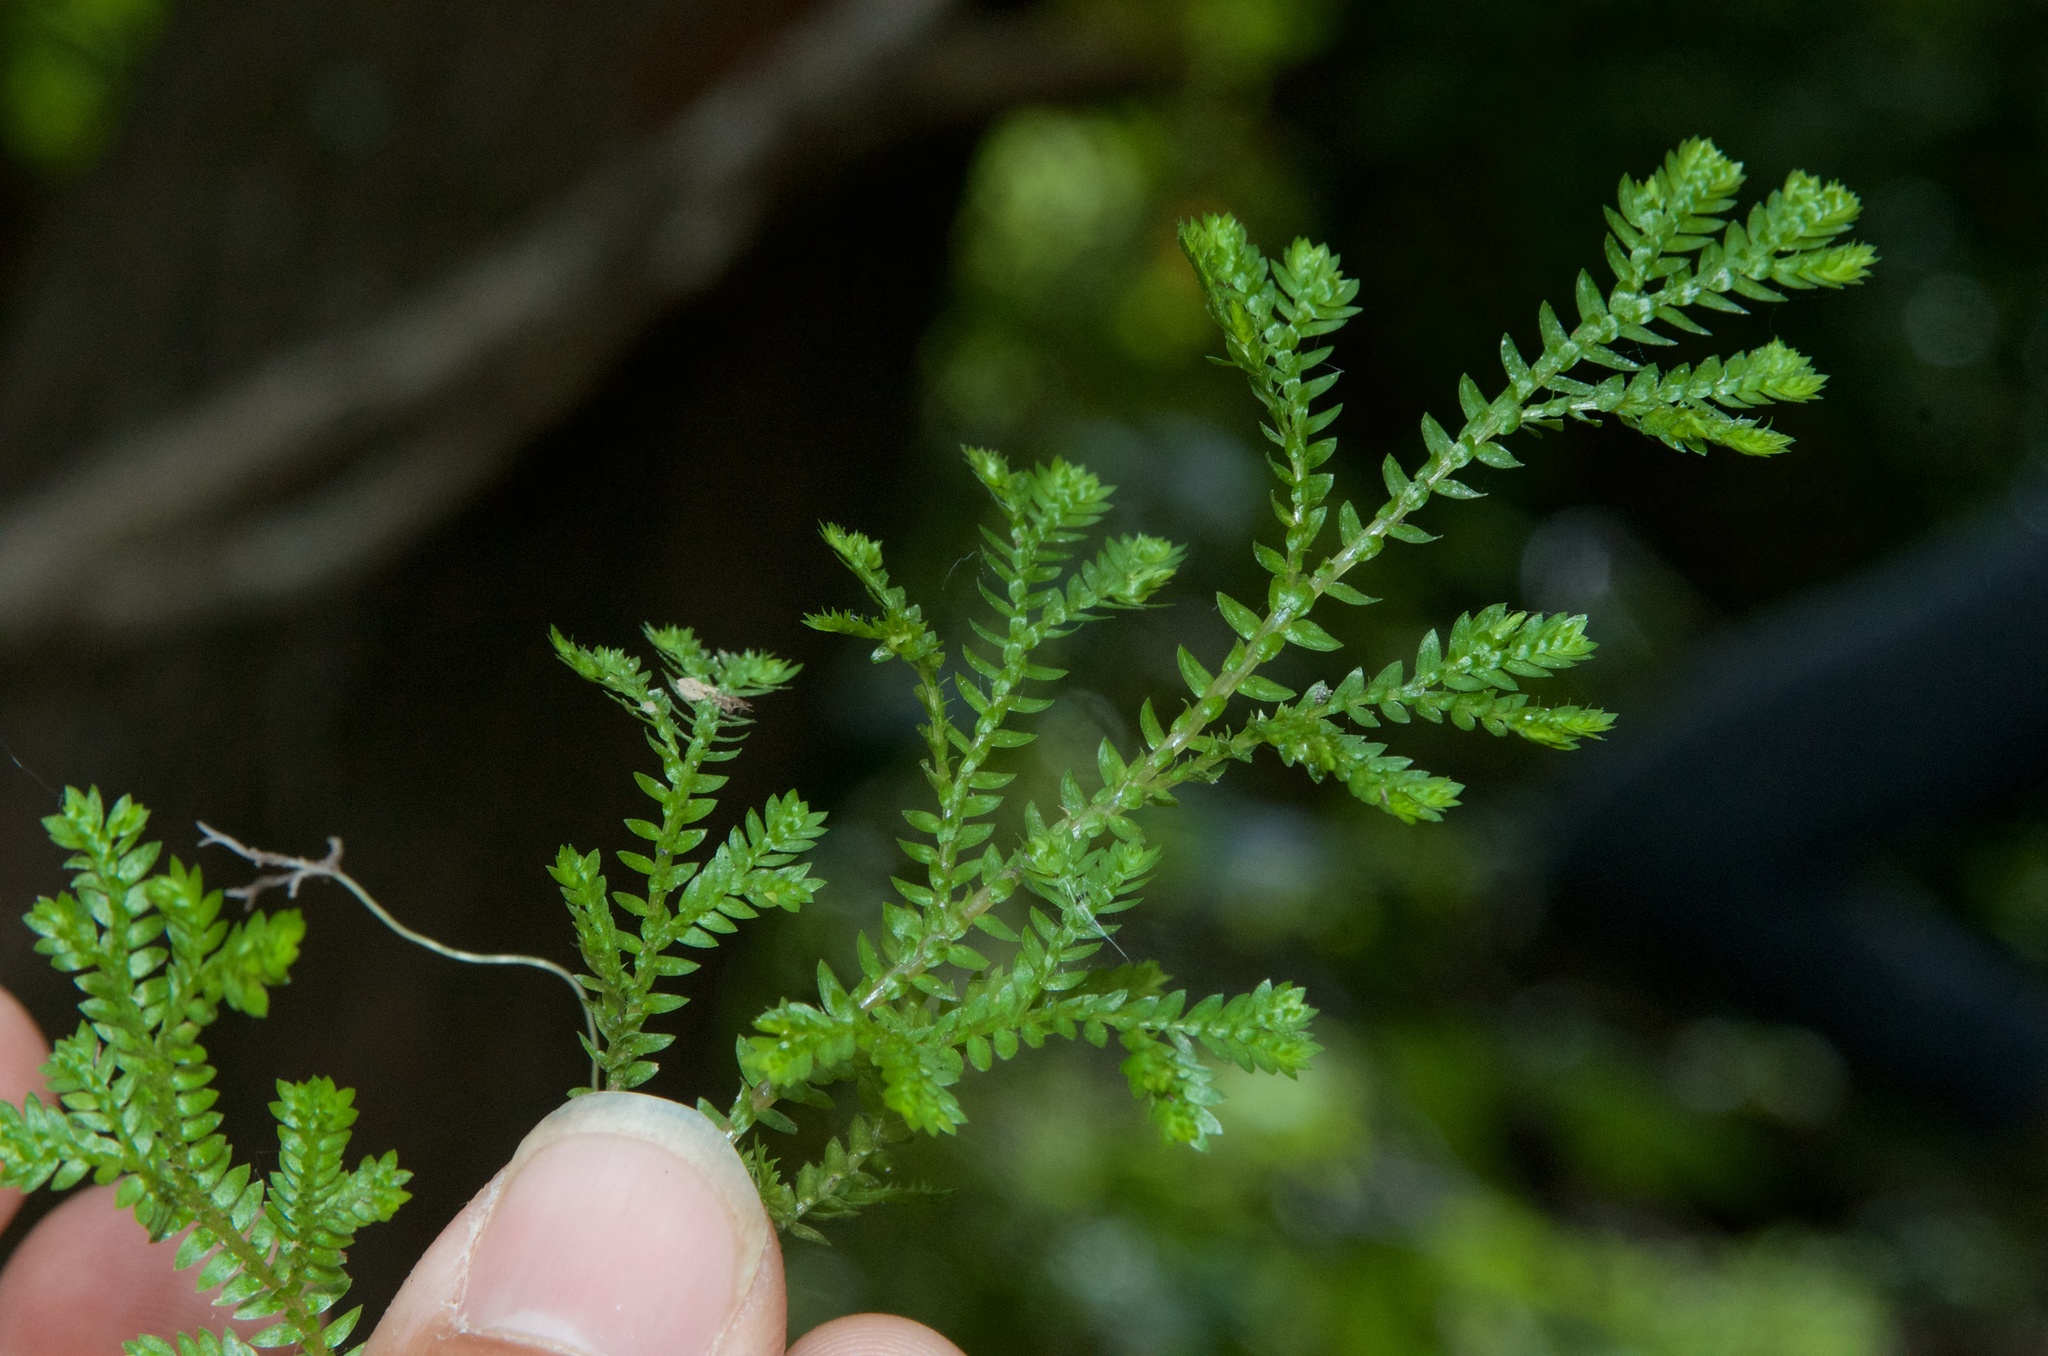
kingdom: Plantae
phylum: Tracheophyta
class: Lycopodiopsida
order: Selaginellales
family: Selaginellaceae
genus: Selaginella
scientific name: Selaginella kraussiana
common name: Krauss' spikemoss
